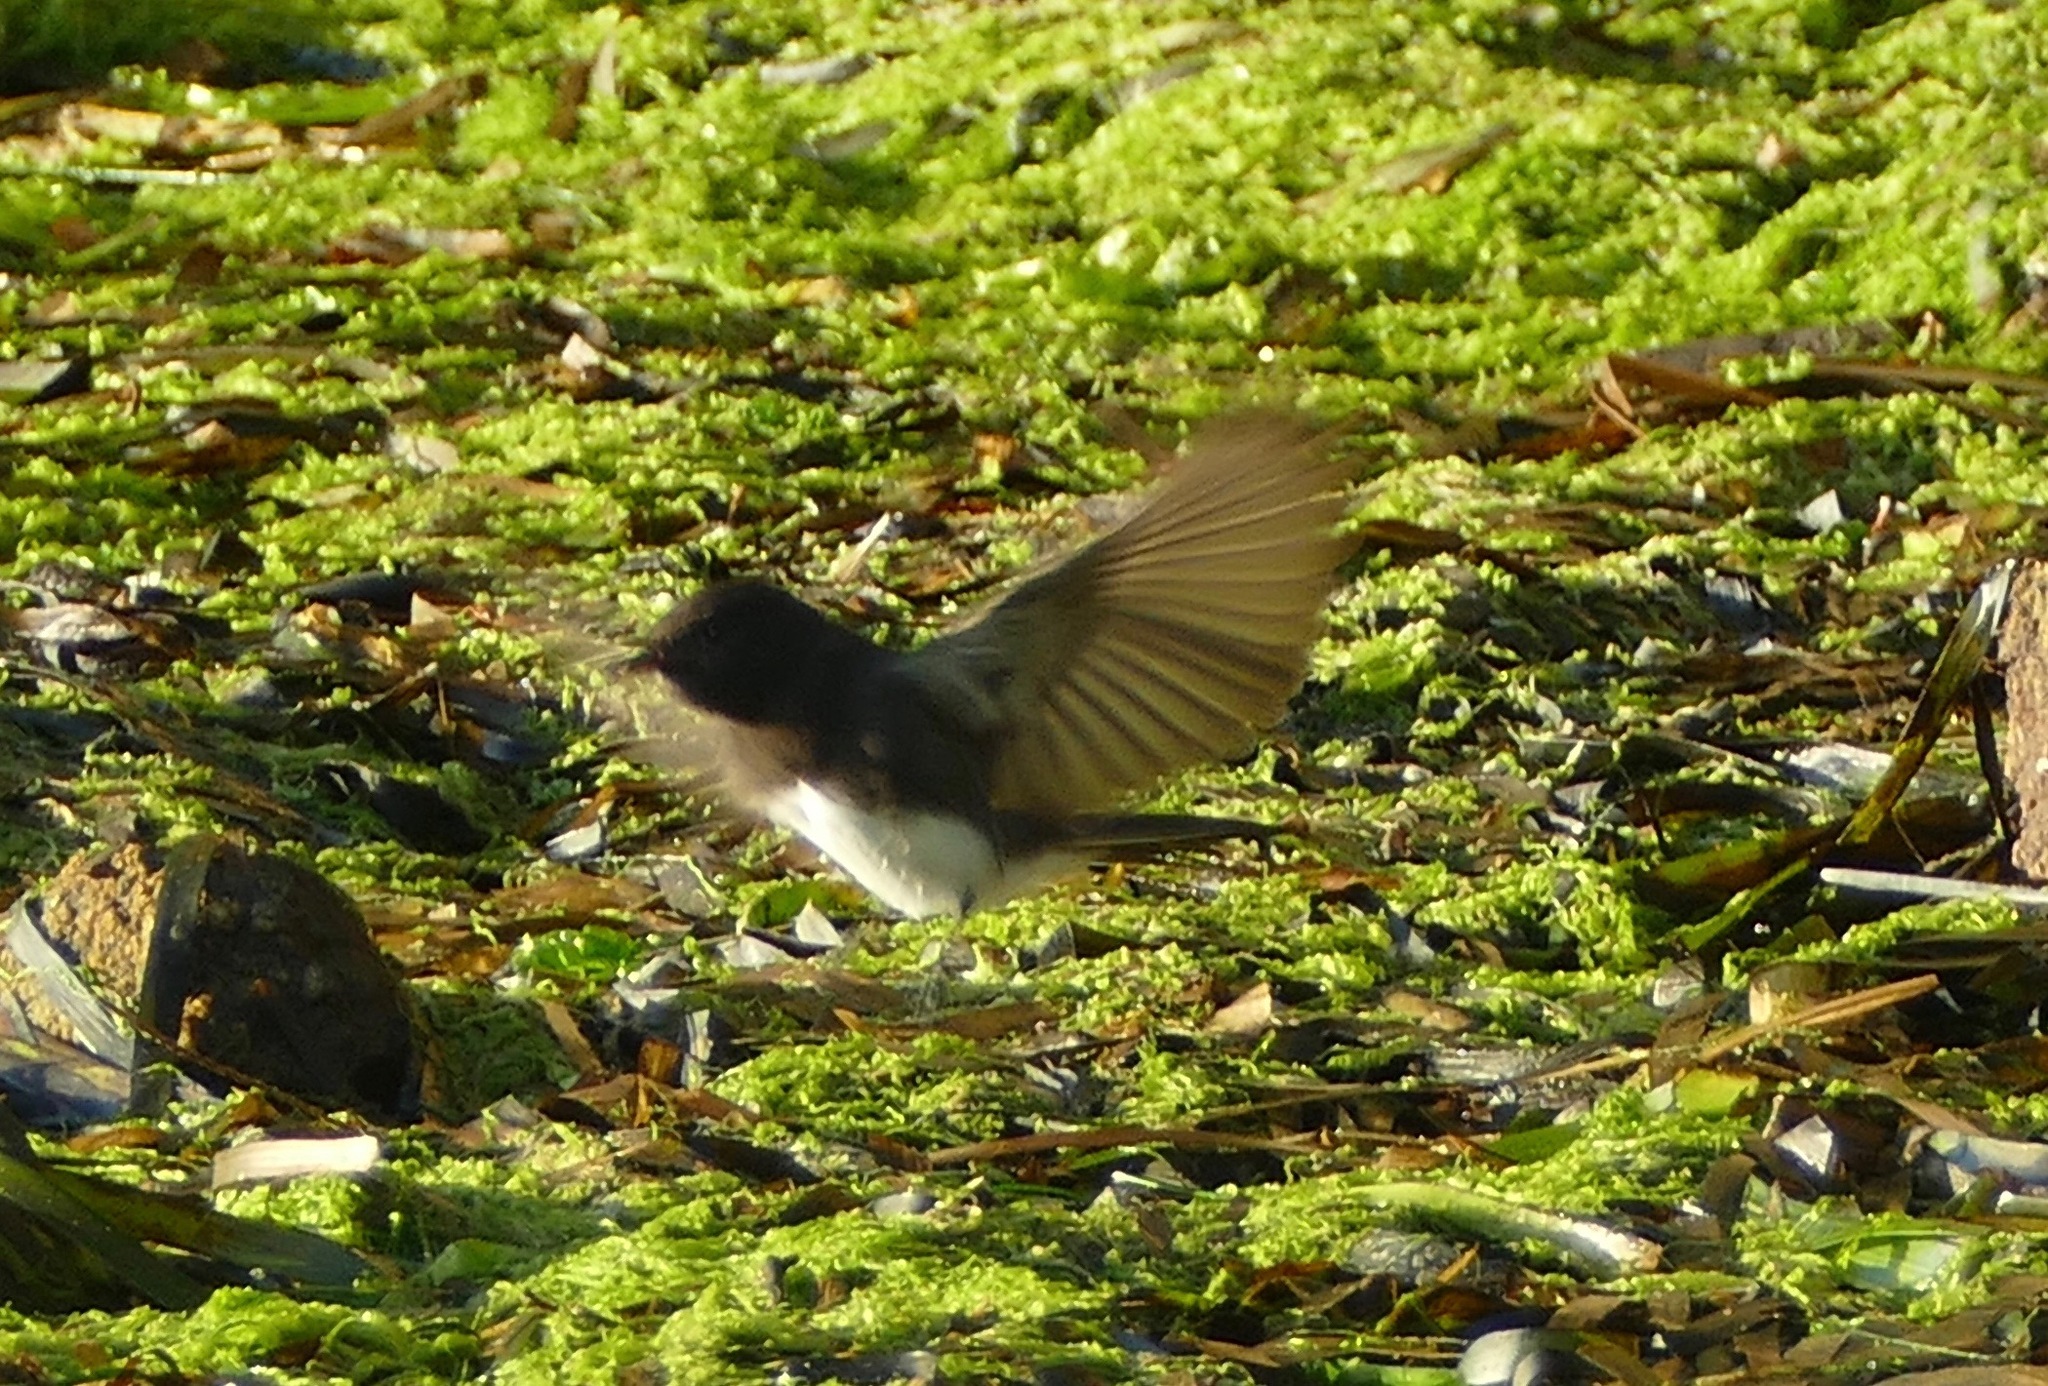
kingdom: Animalia
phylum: Chordata
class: Aves
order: Passeriformes
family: Tyrannidae
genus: Sayornis
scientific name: Sayornis nigricans
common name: Black phoebe
